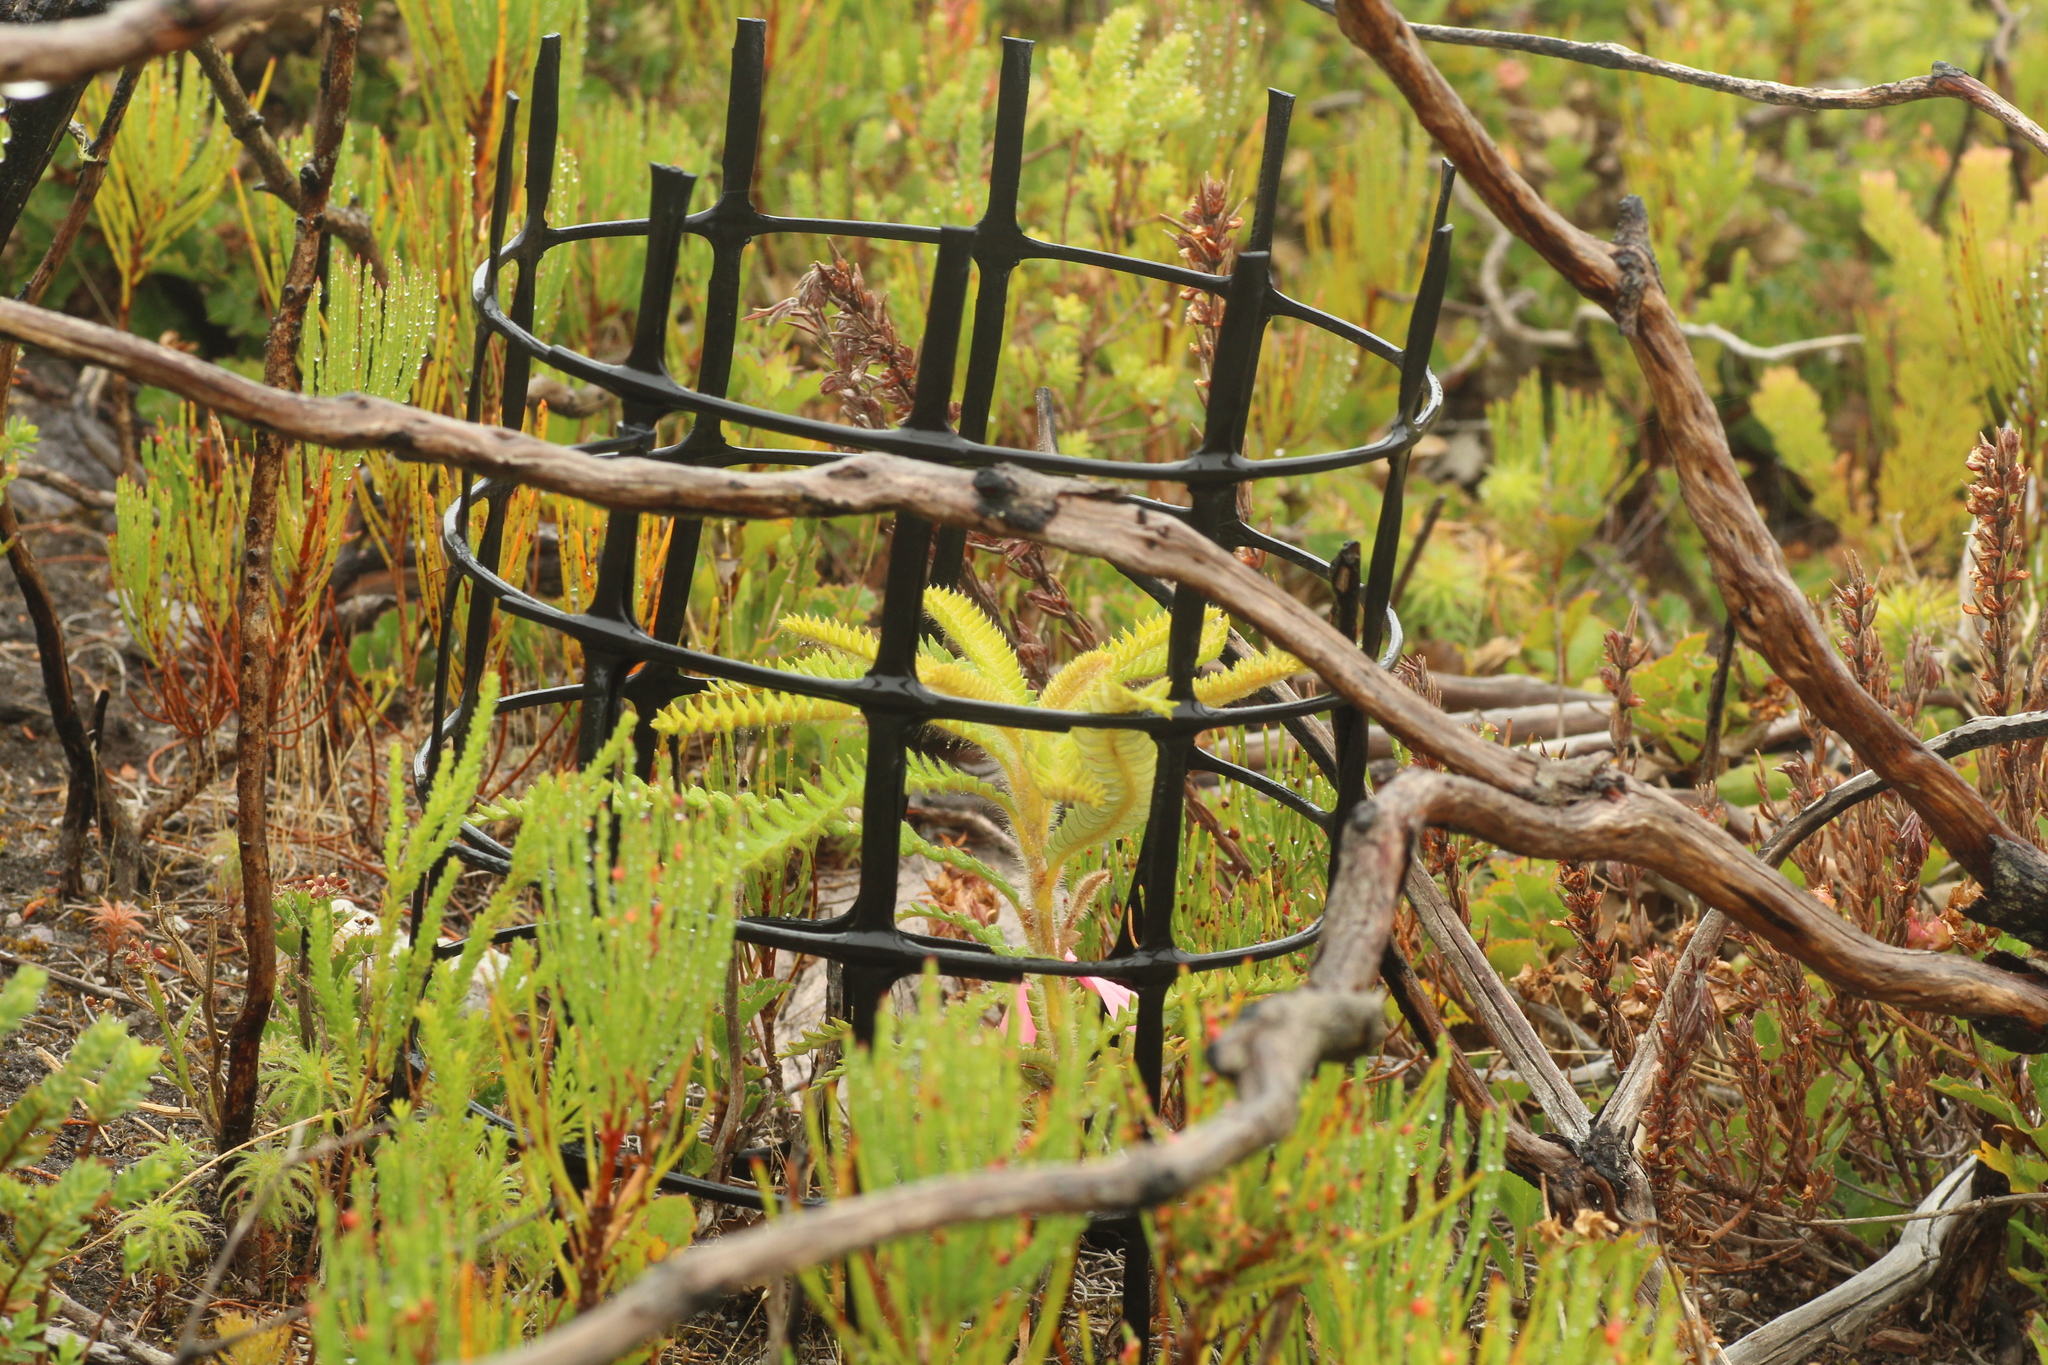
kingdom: Plantae
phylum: Tracheophyta
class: Magnoliopsida
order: Proteales
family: Proteaceae
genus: Banksia
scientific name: Banksia montana
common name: Stirling range dyandra
